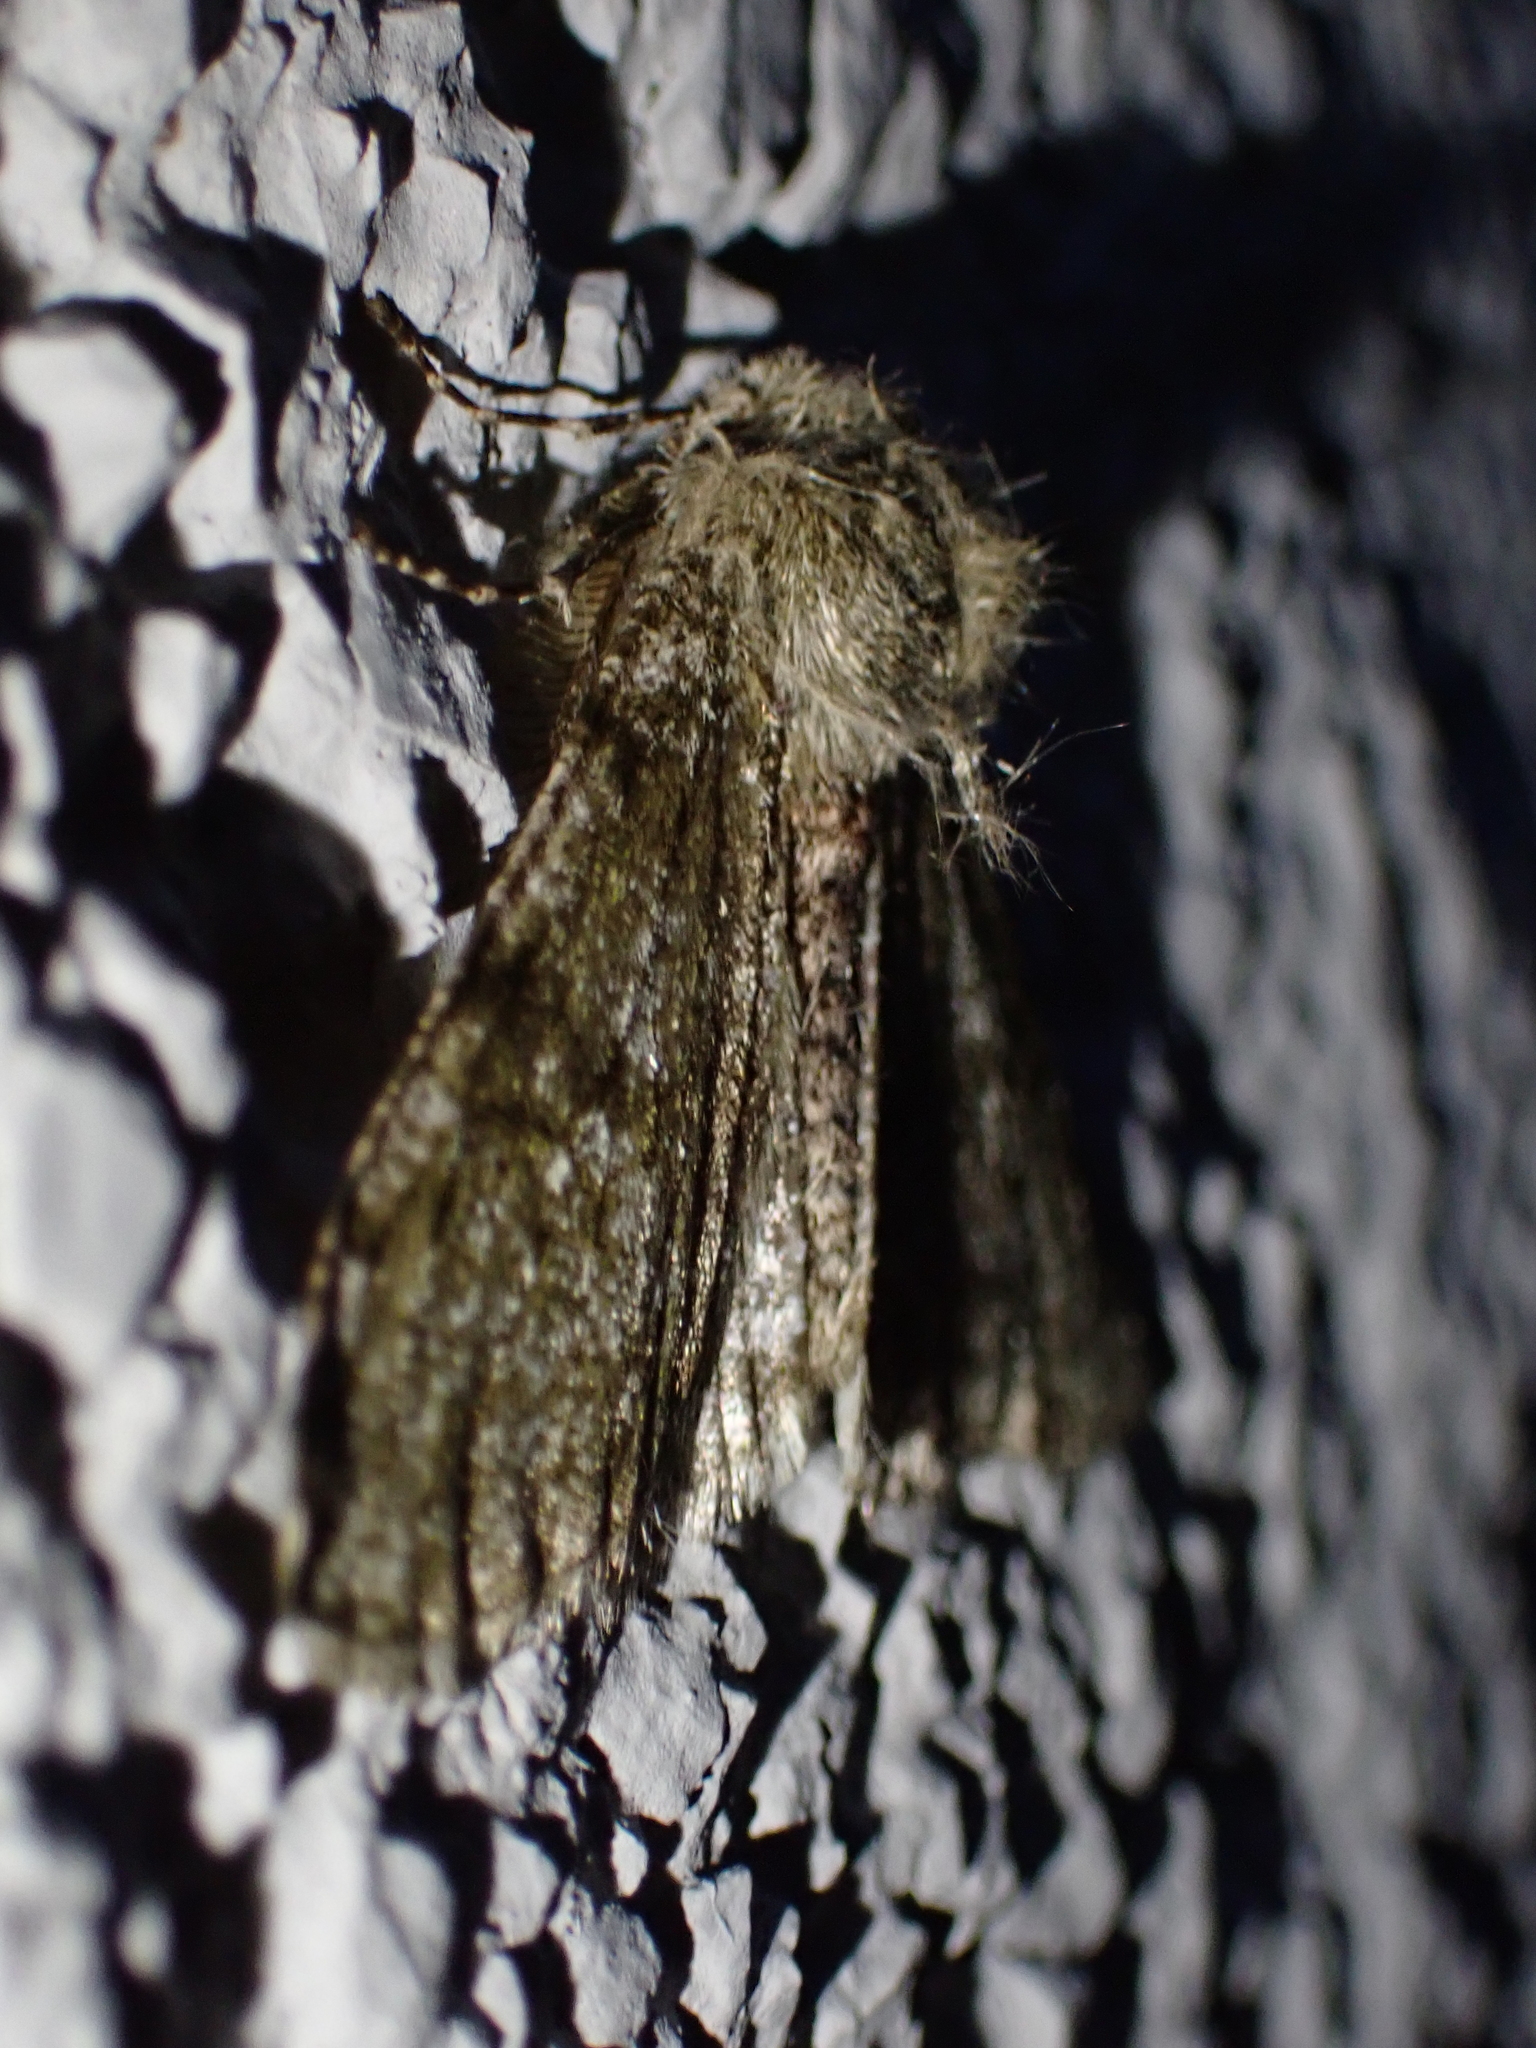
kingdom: Animalia
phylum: Arthropoda
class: Insecta
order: Lepidoptera
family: Geometridae
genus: Phigalia
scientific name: Phigalia pilosaria
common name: Pale brindled beauty
